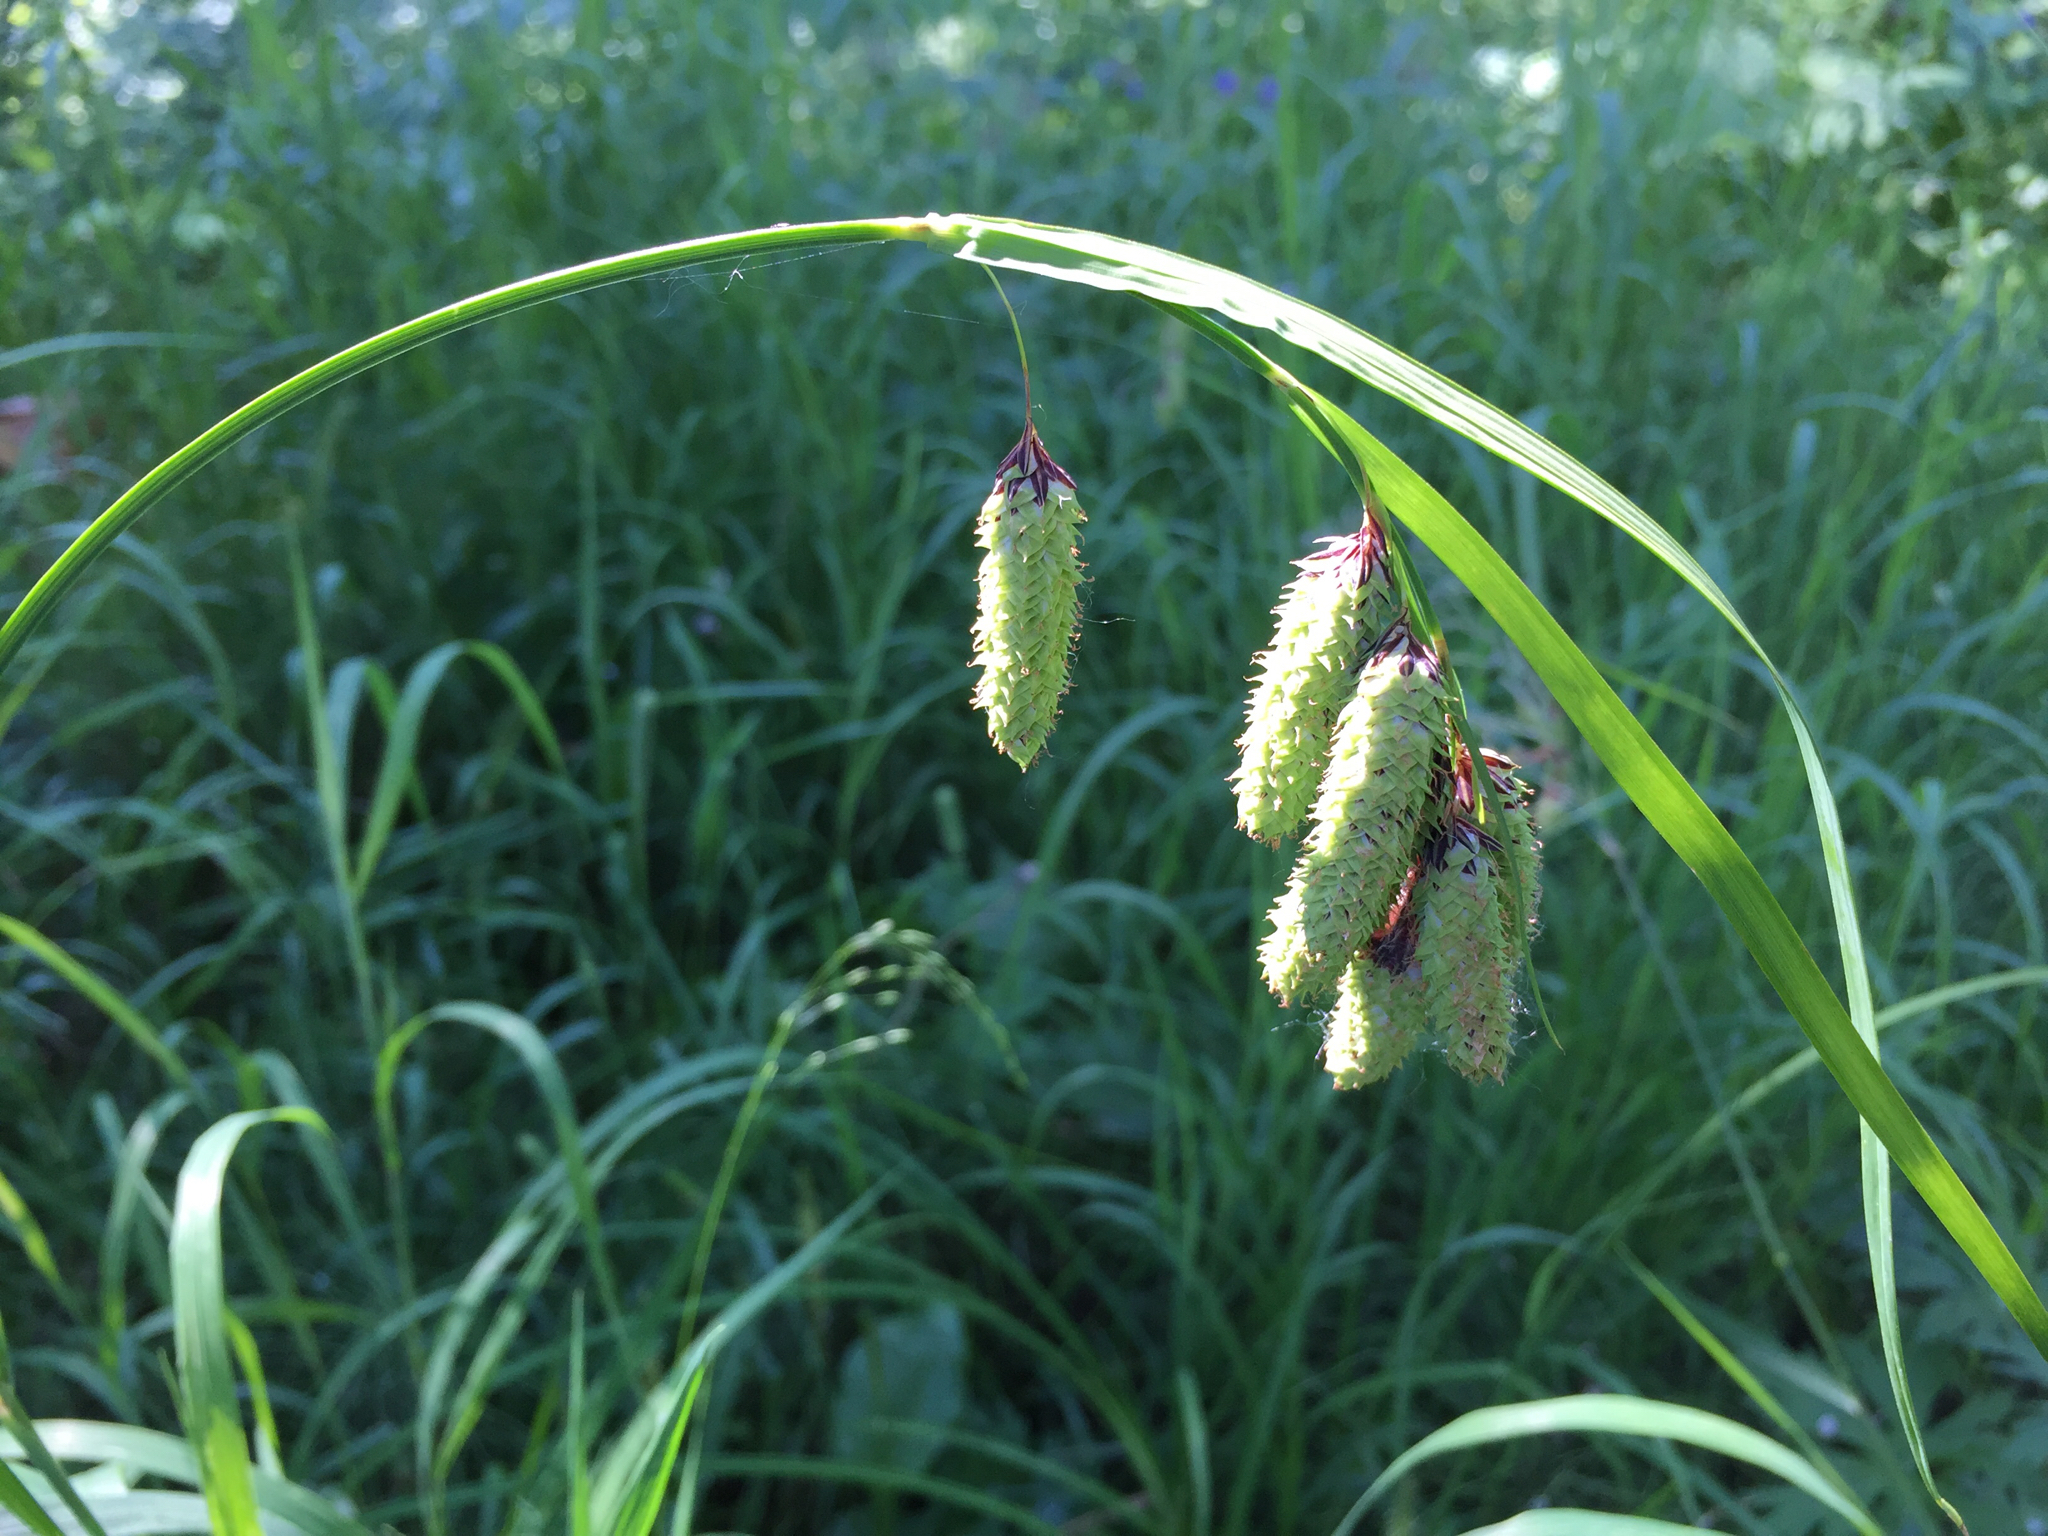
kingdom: Plantae
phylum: Tracheophyta
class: Liliopsida
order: Poales
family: Cyperaceae
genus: Carex
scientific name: Carex mertensii
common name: Mertens' sedge
